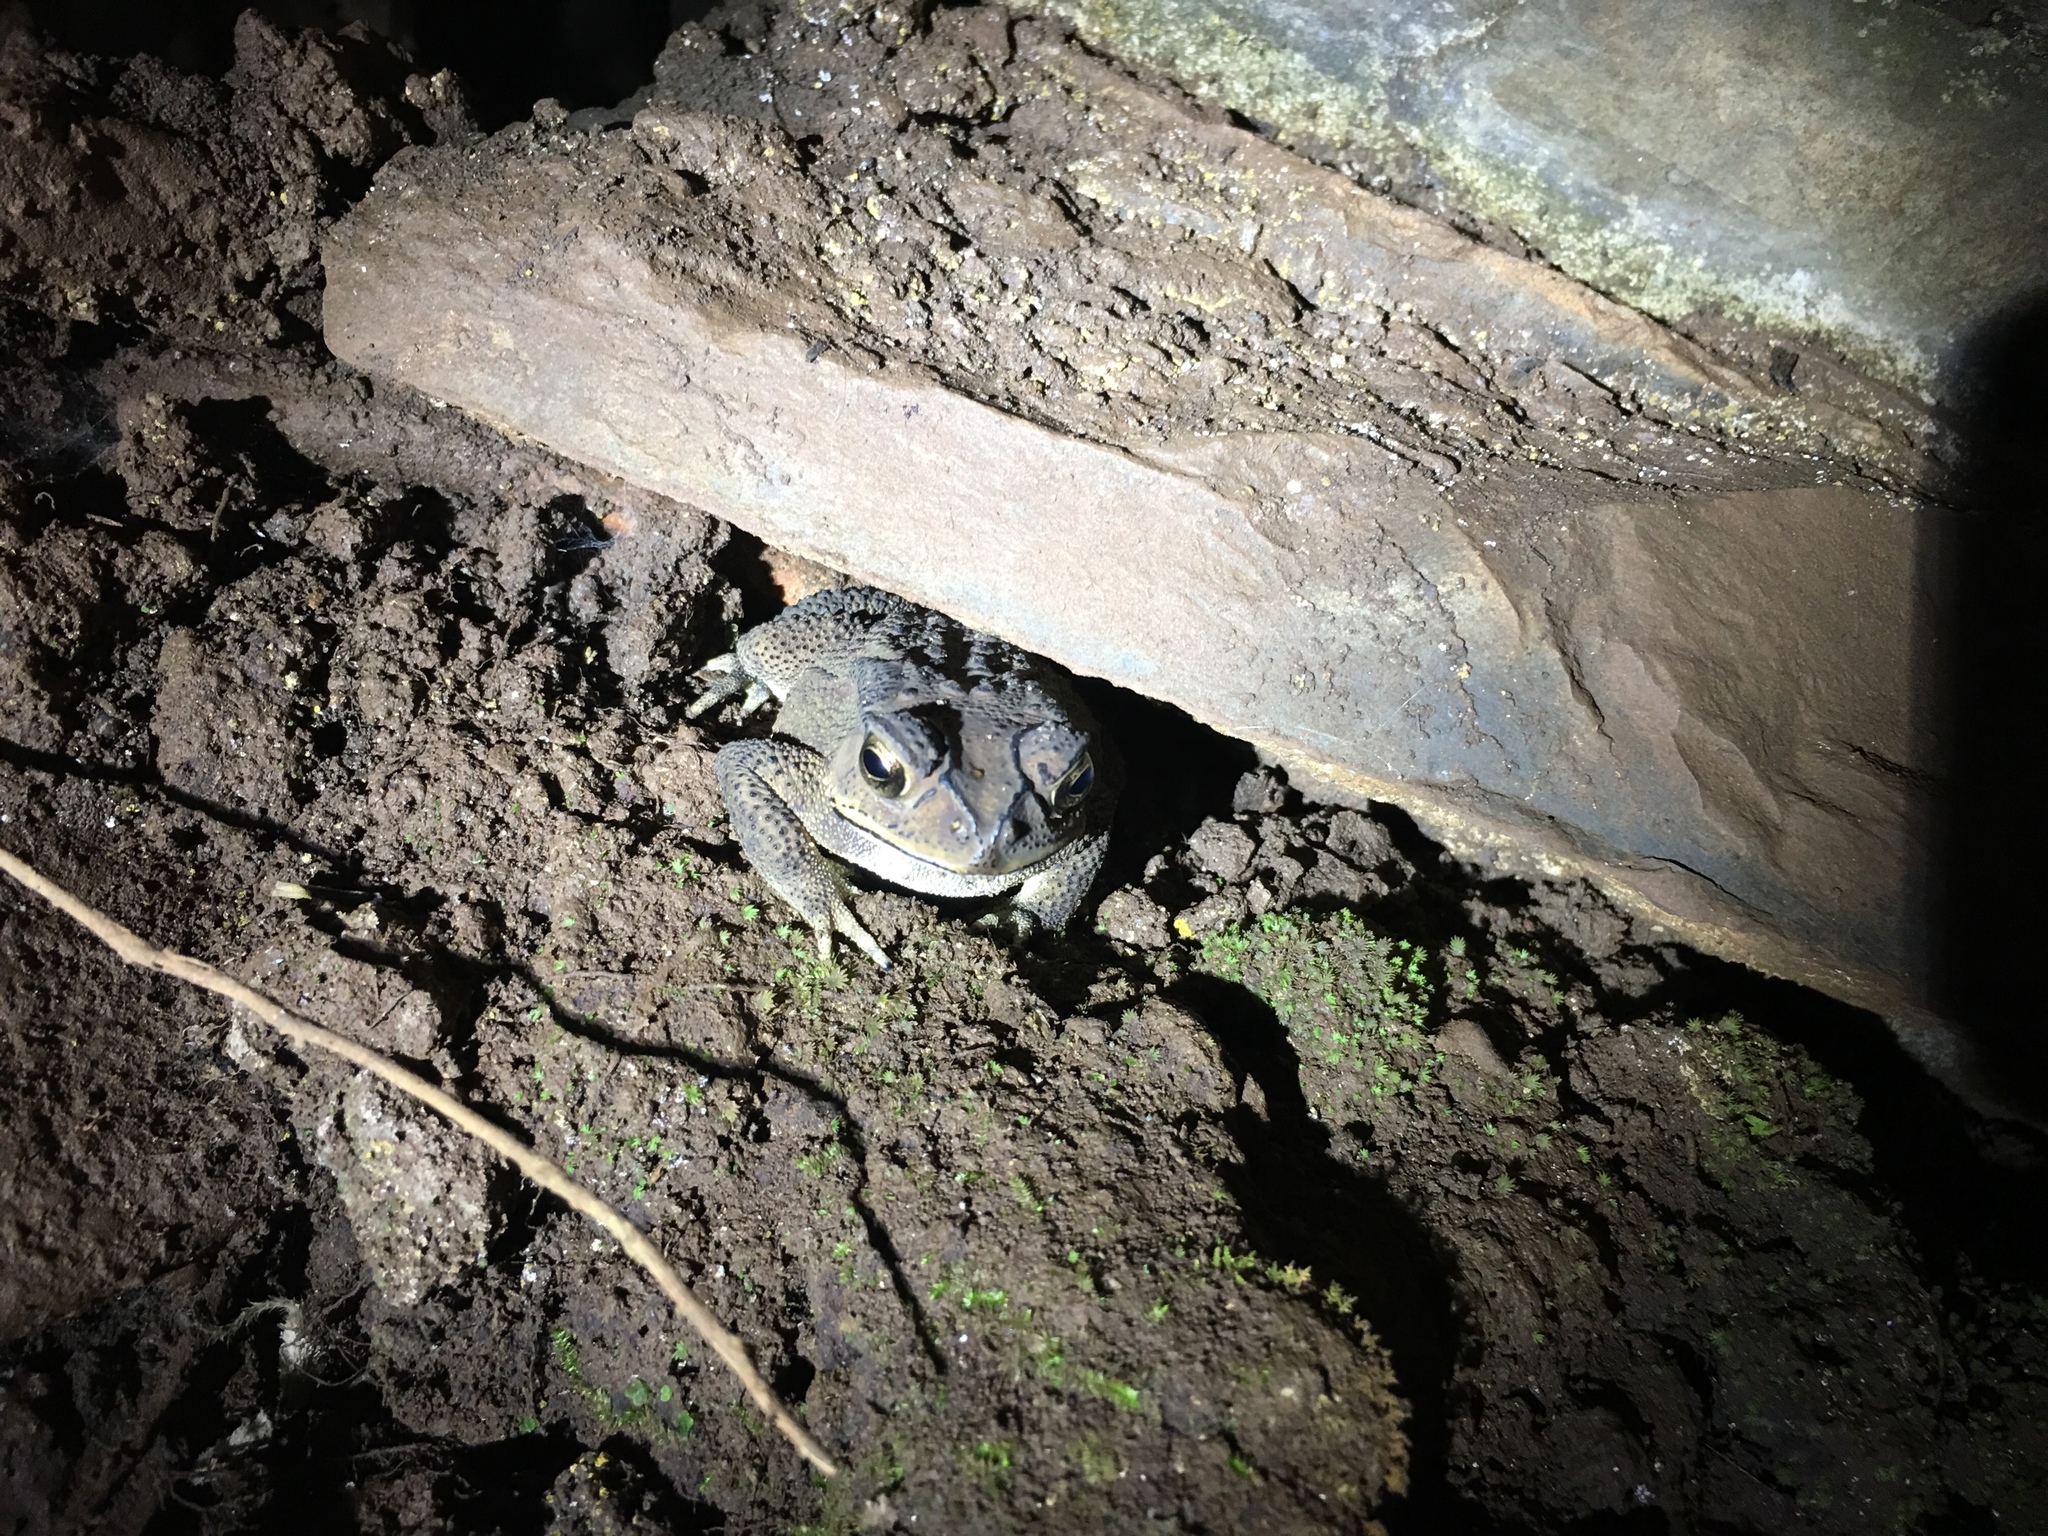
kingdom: Animalia
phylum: Chordata
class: Amphibia
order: Anura
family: Bufonidae
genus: Duttaphrynus
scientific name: Duttaphrynus melanostictus
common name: Common sunda toad
